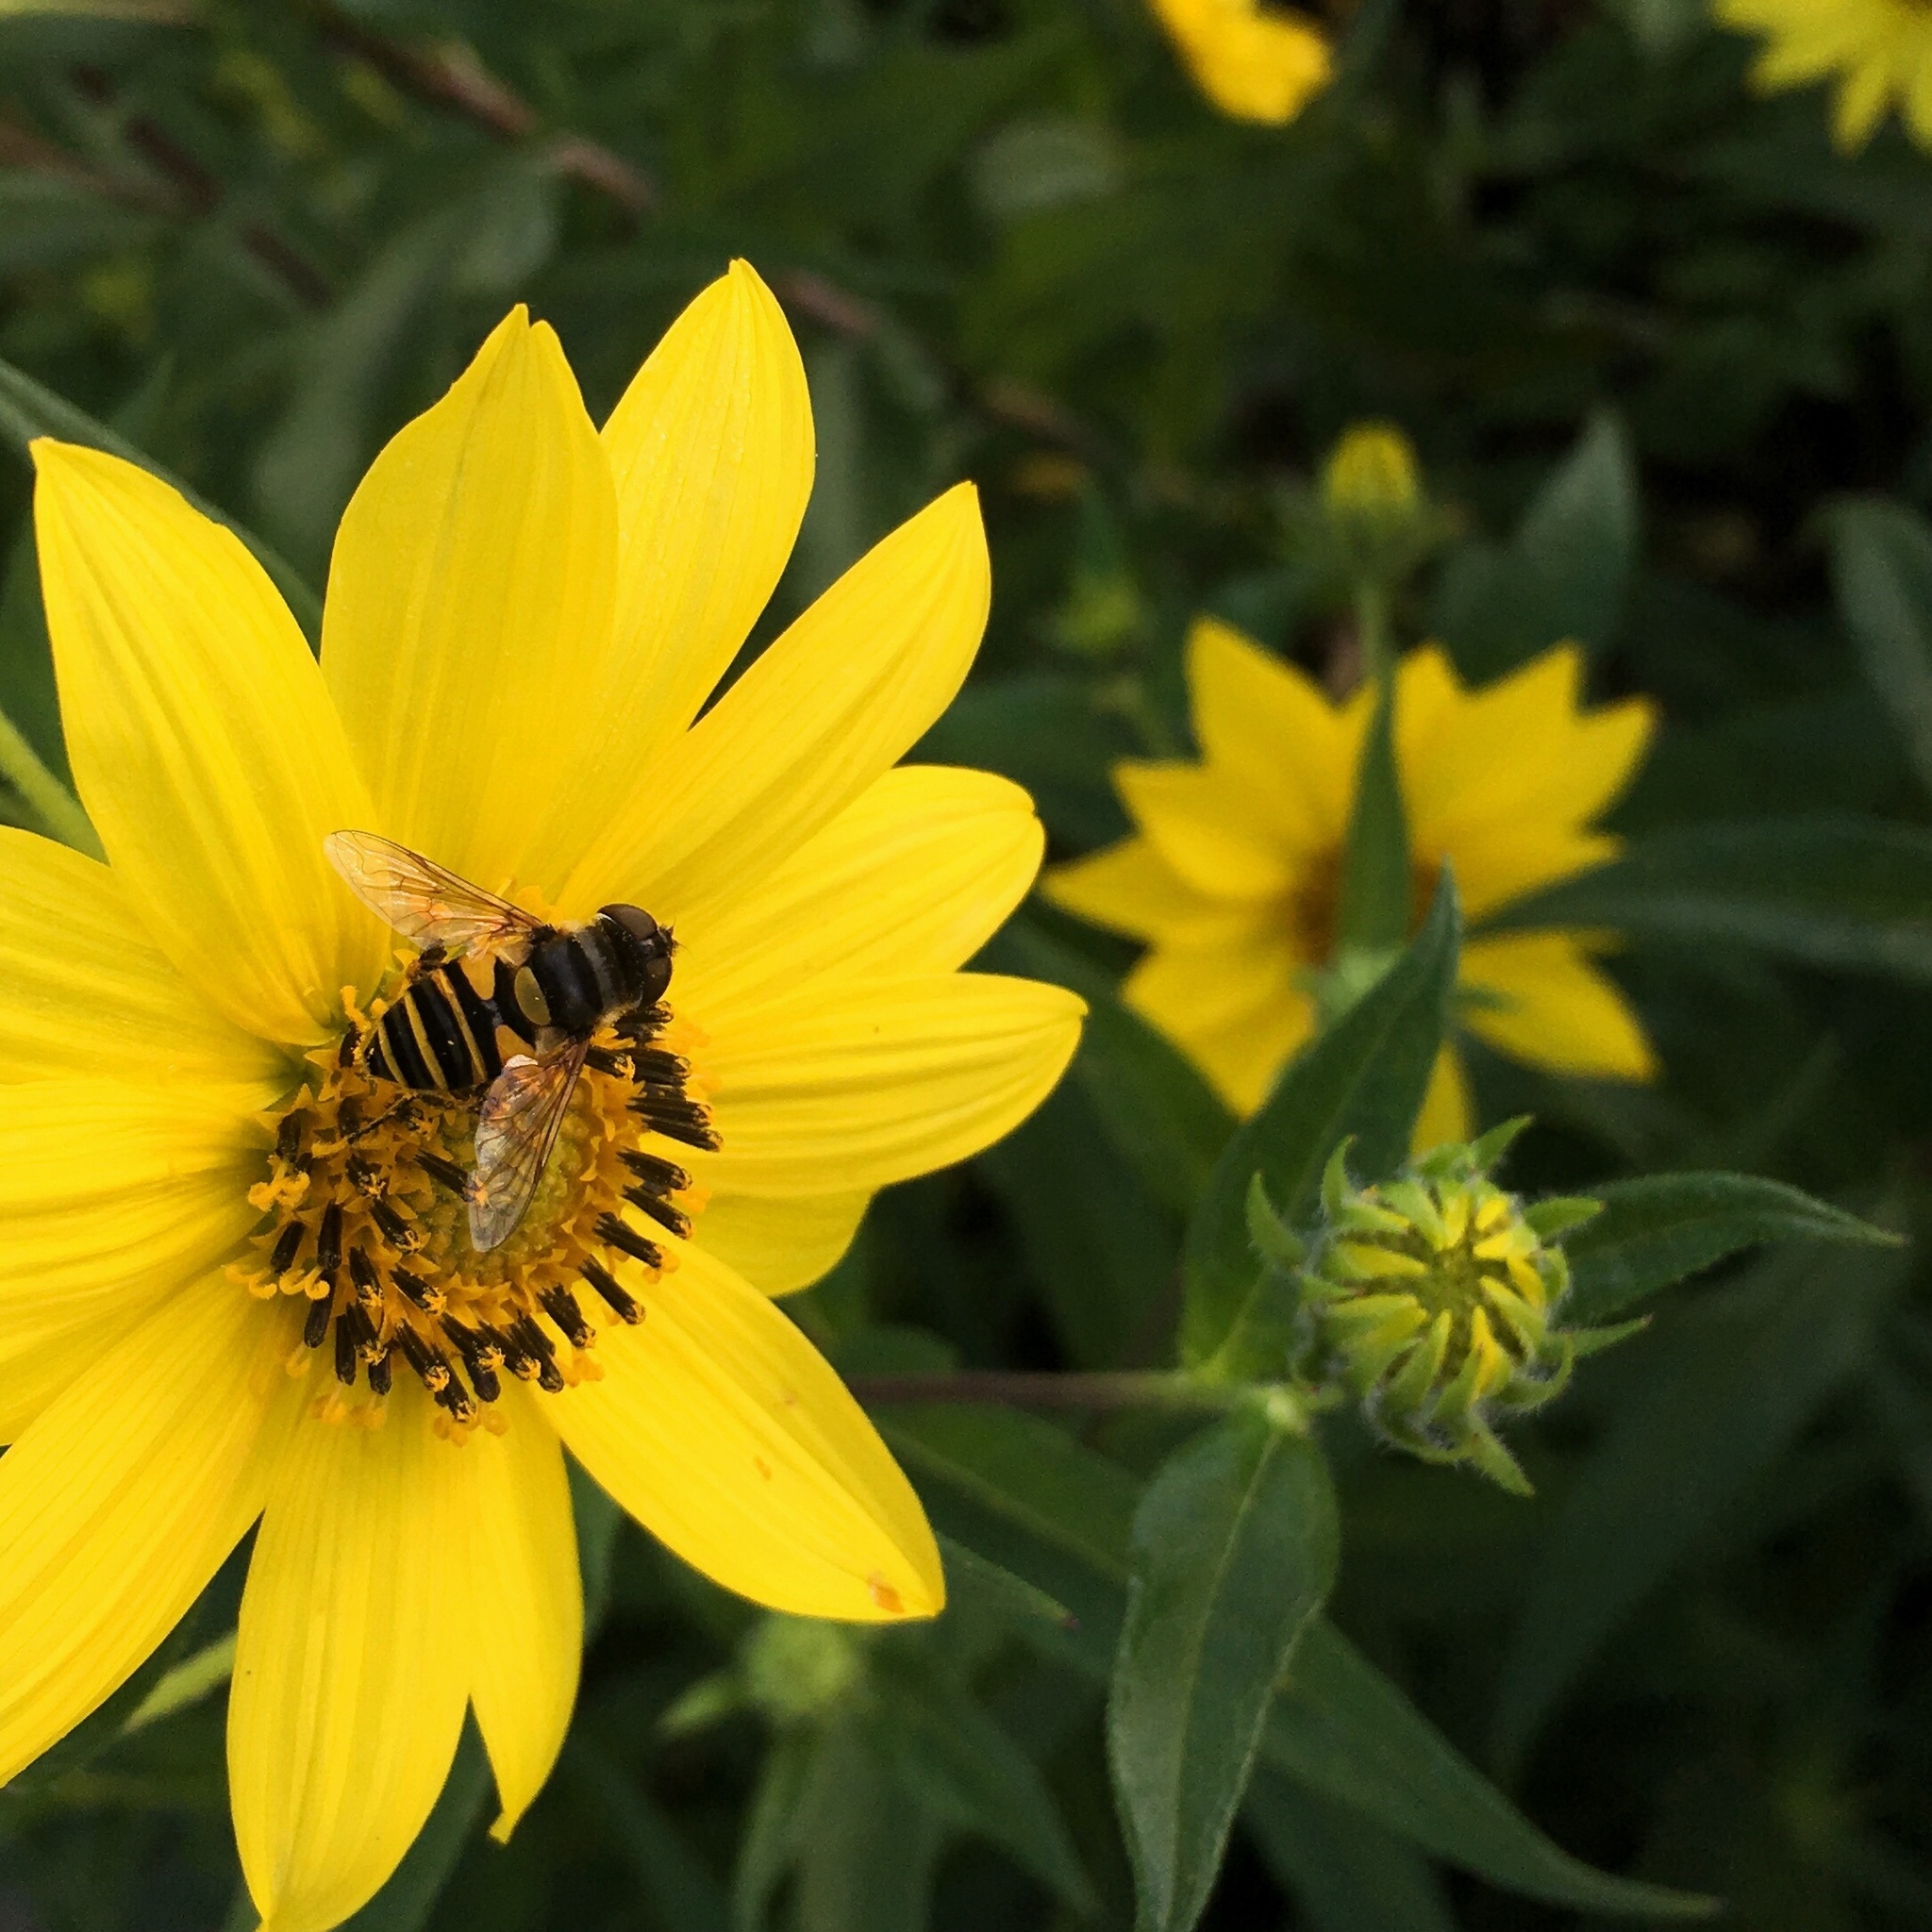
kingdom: Animalia
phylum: Arthropoda
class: Insecta
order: Diptera
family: Syrphidae
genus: Eristalis
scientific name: Eristalis transversa
